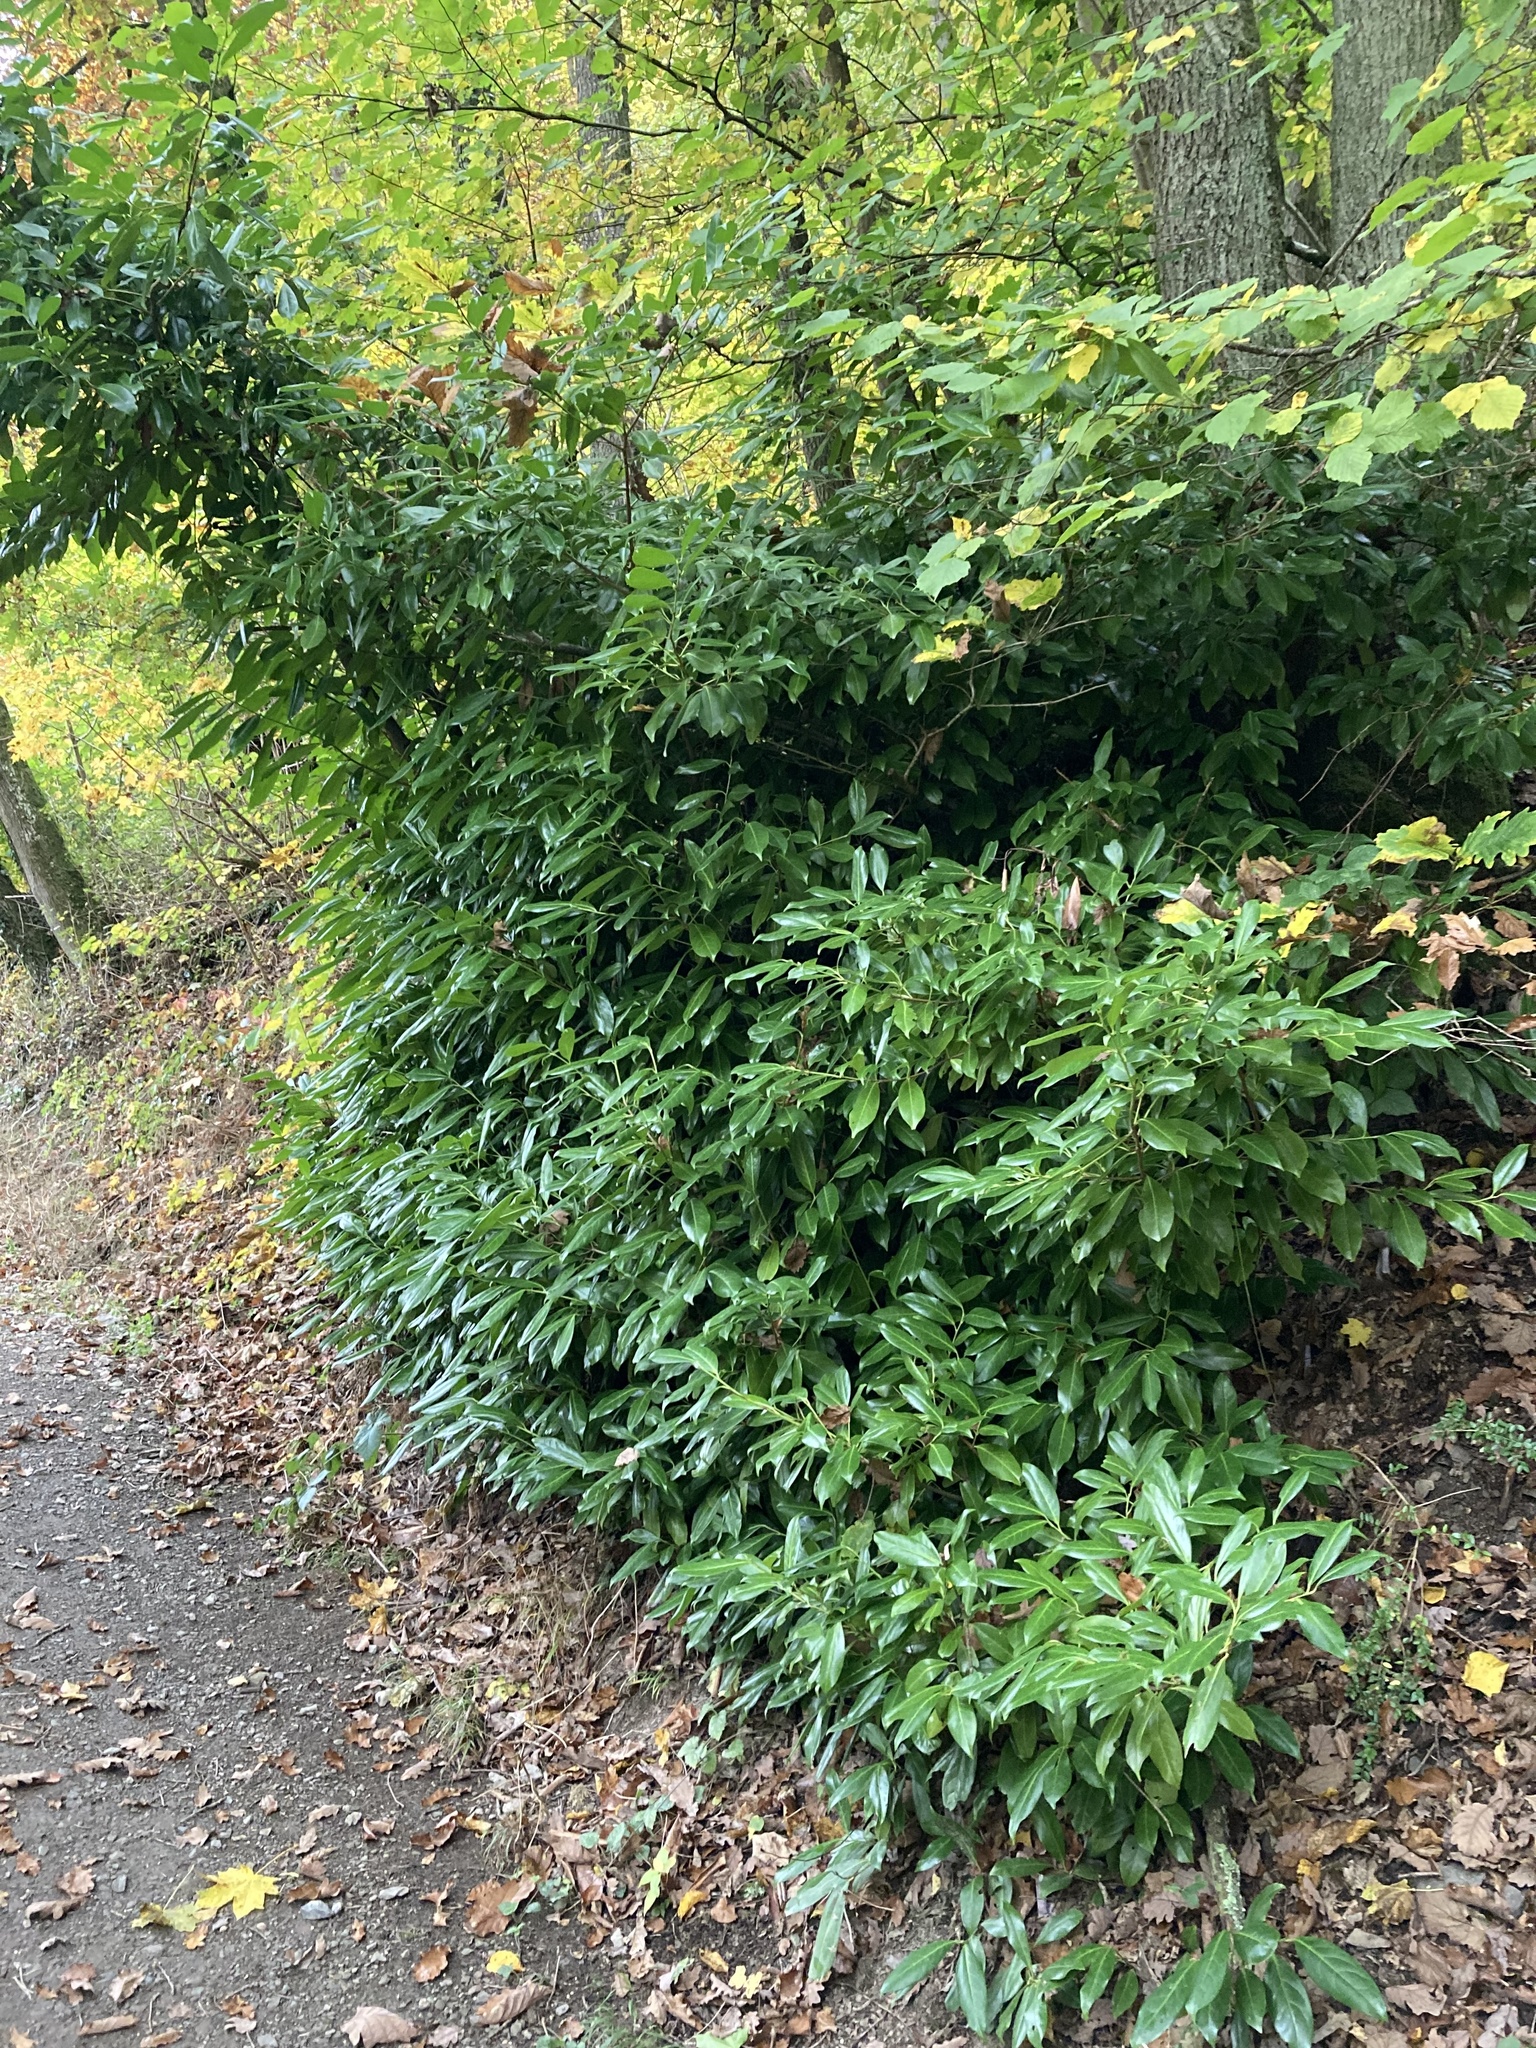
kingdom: Plantae
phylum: Tracheophyta
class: Magnoliopsida
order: Rosales
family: Rosaceae
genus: Prunus
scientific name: Prunus laurocerasus
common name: Cherry laurel
